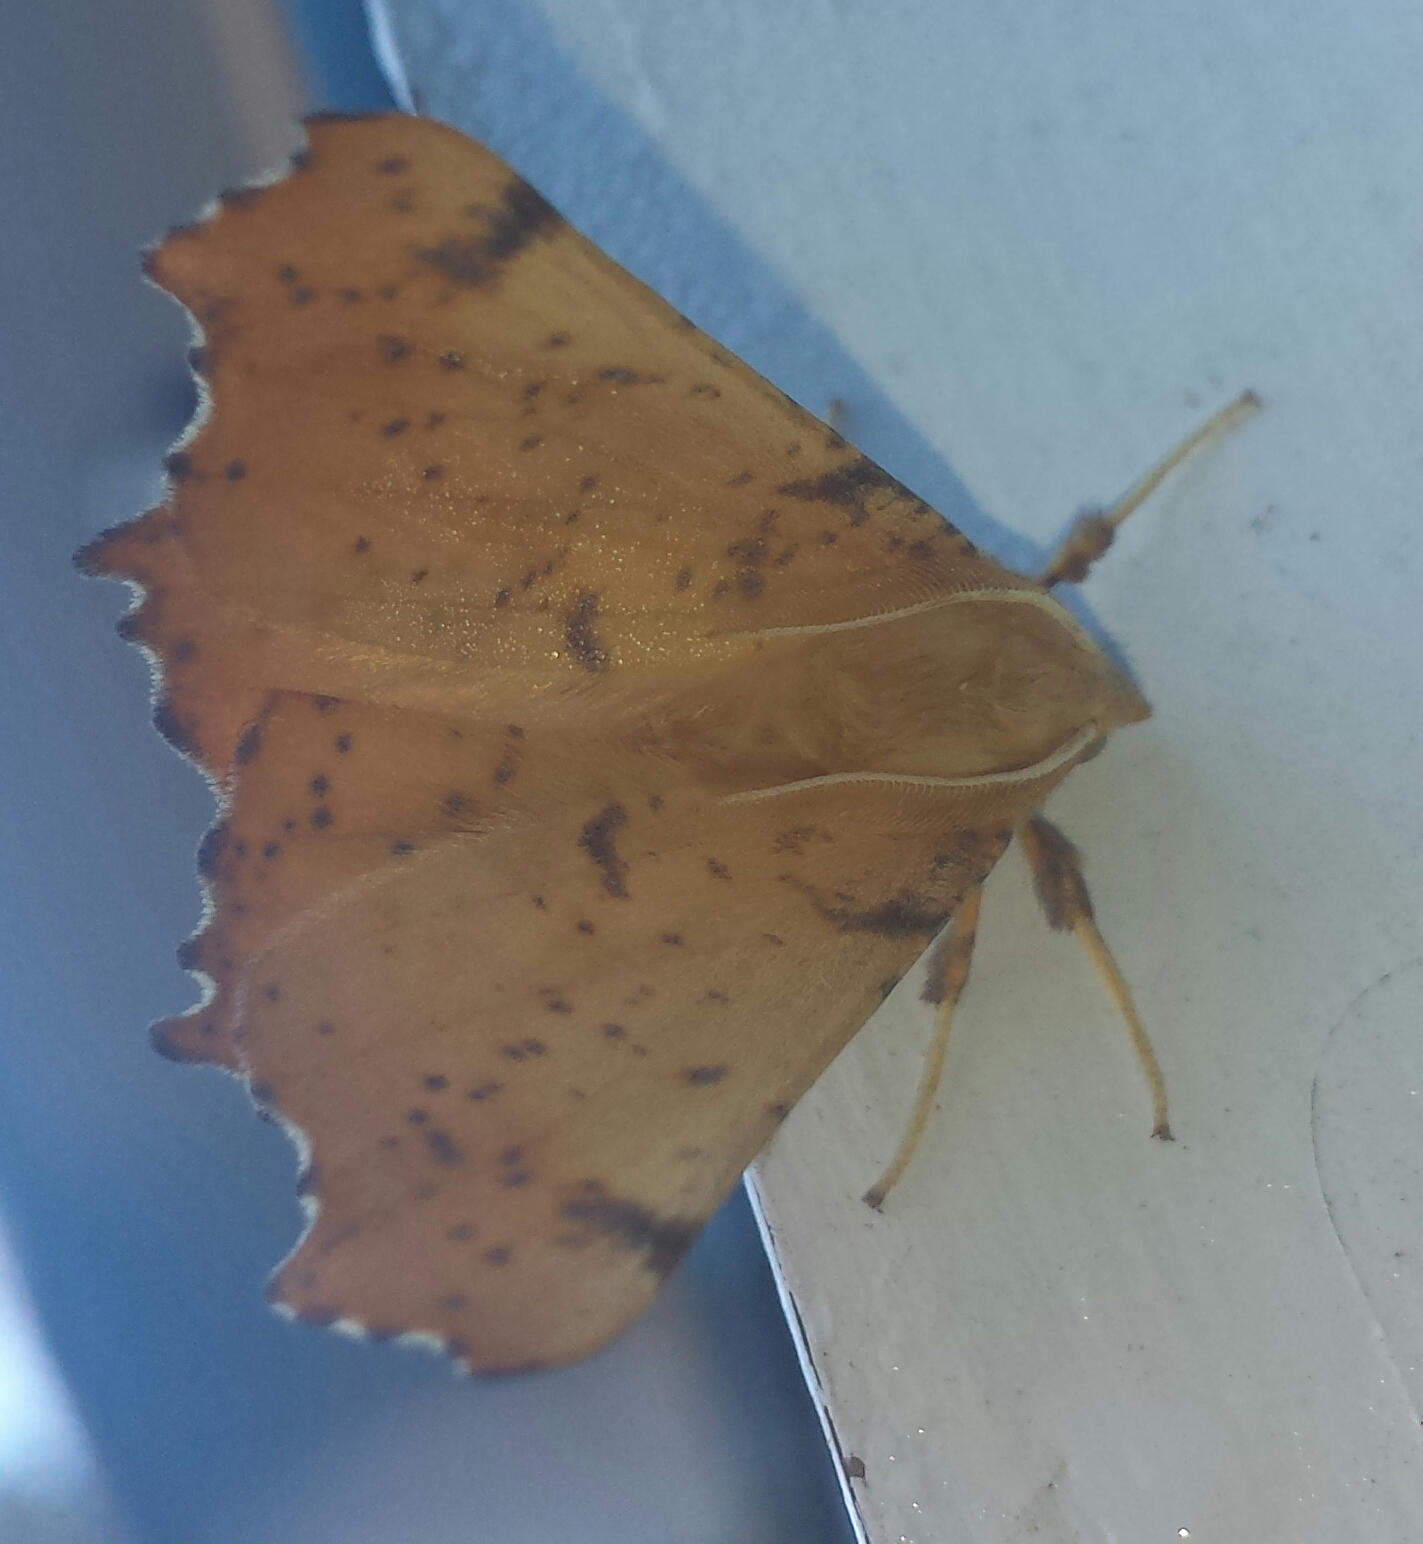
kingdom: Animalia
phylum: Arthropoda
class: Insecta
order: Lepidoptera
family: Geometridae
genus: Ennomos
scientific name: Ennomos magnaria
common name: Maple spanworm
